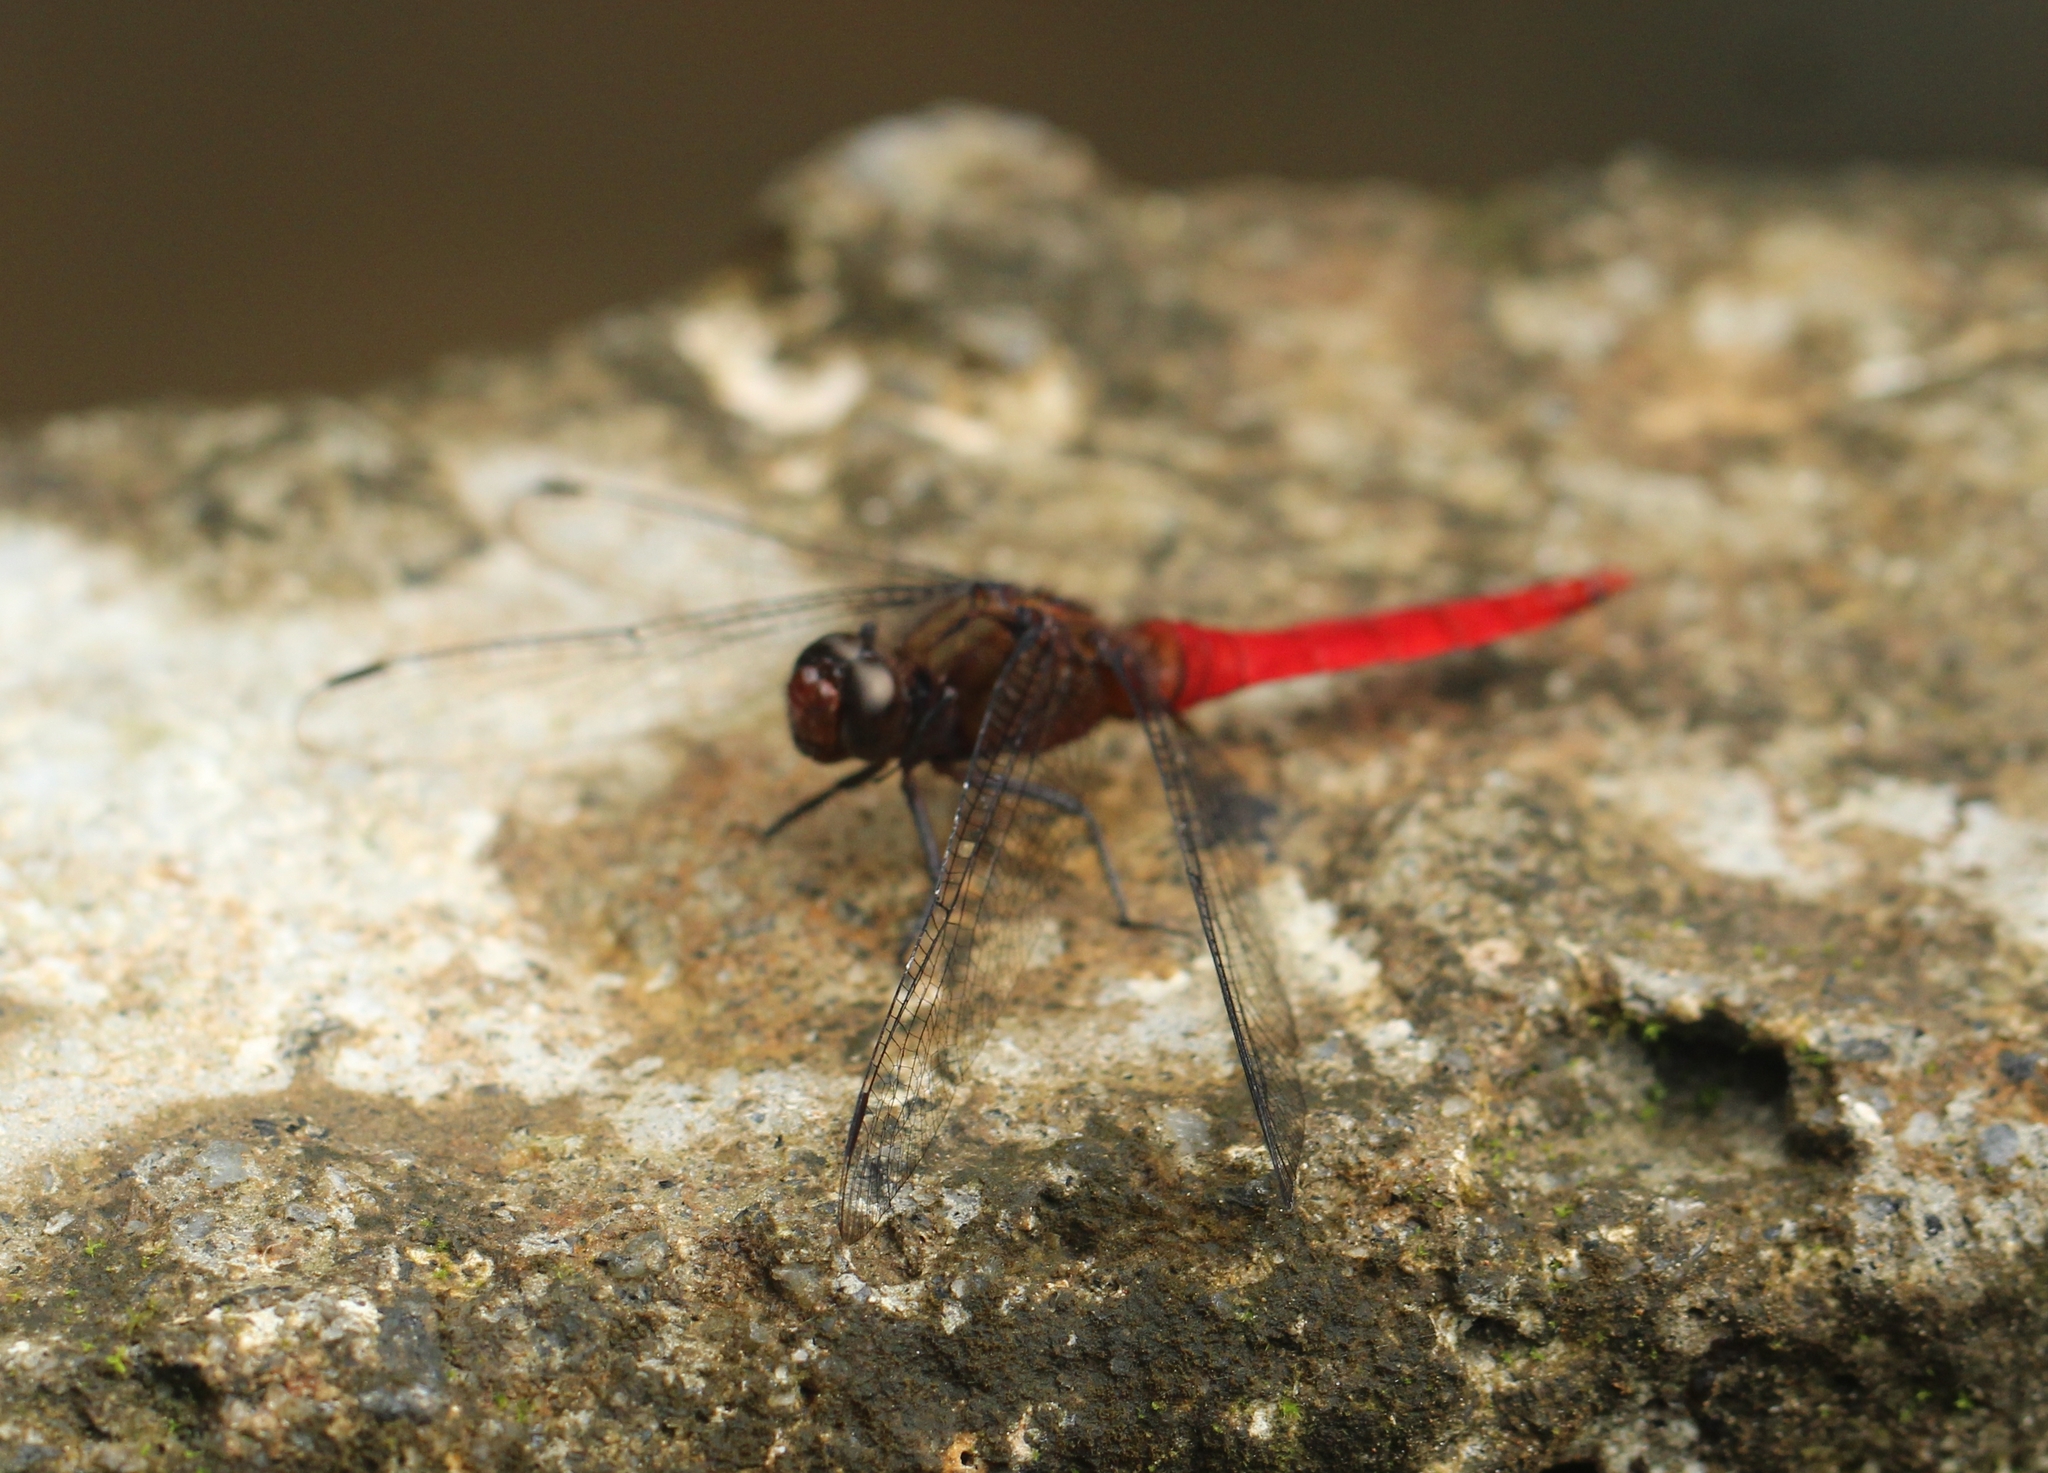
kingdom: Animalia
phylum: Arthropoda
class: Insecta
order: Odonata
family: Libellulidae
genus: Orthetrum
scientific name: Orthetrum chrysis
